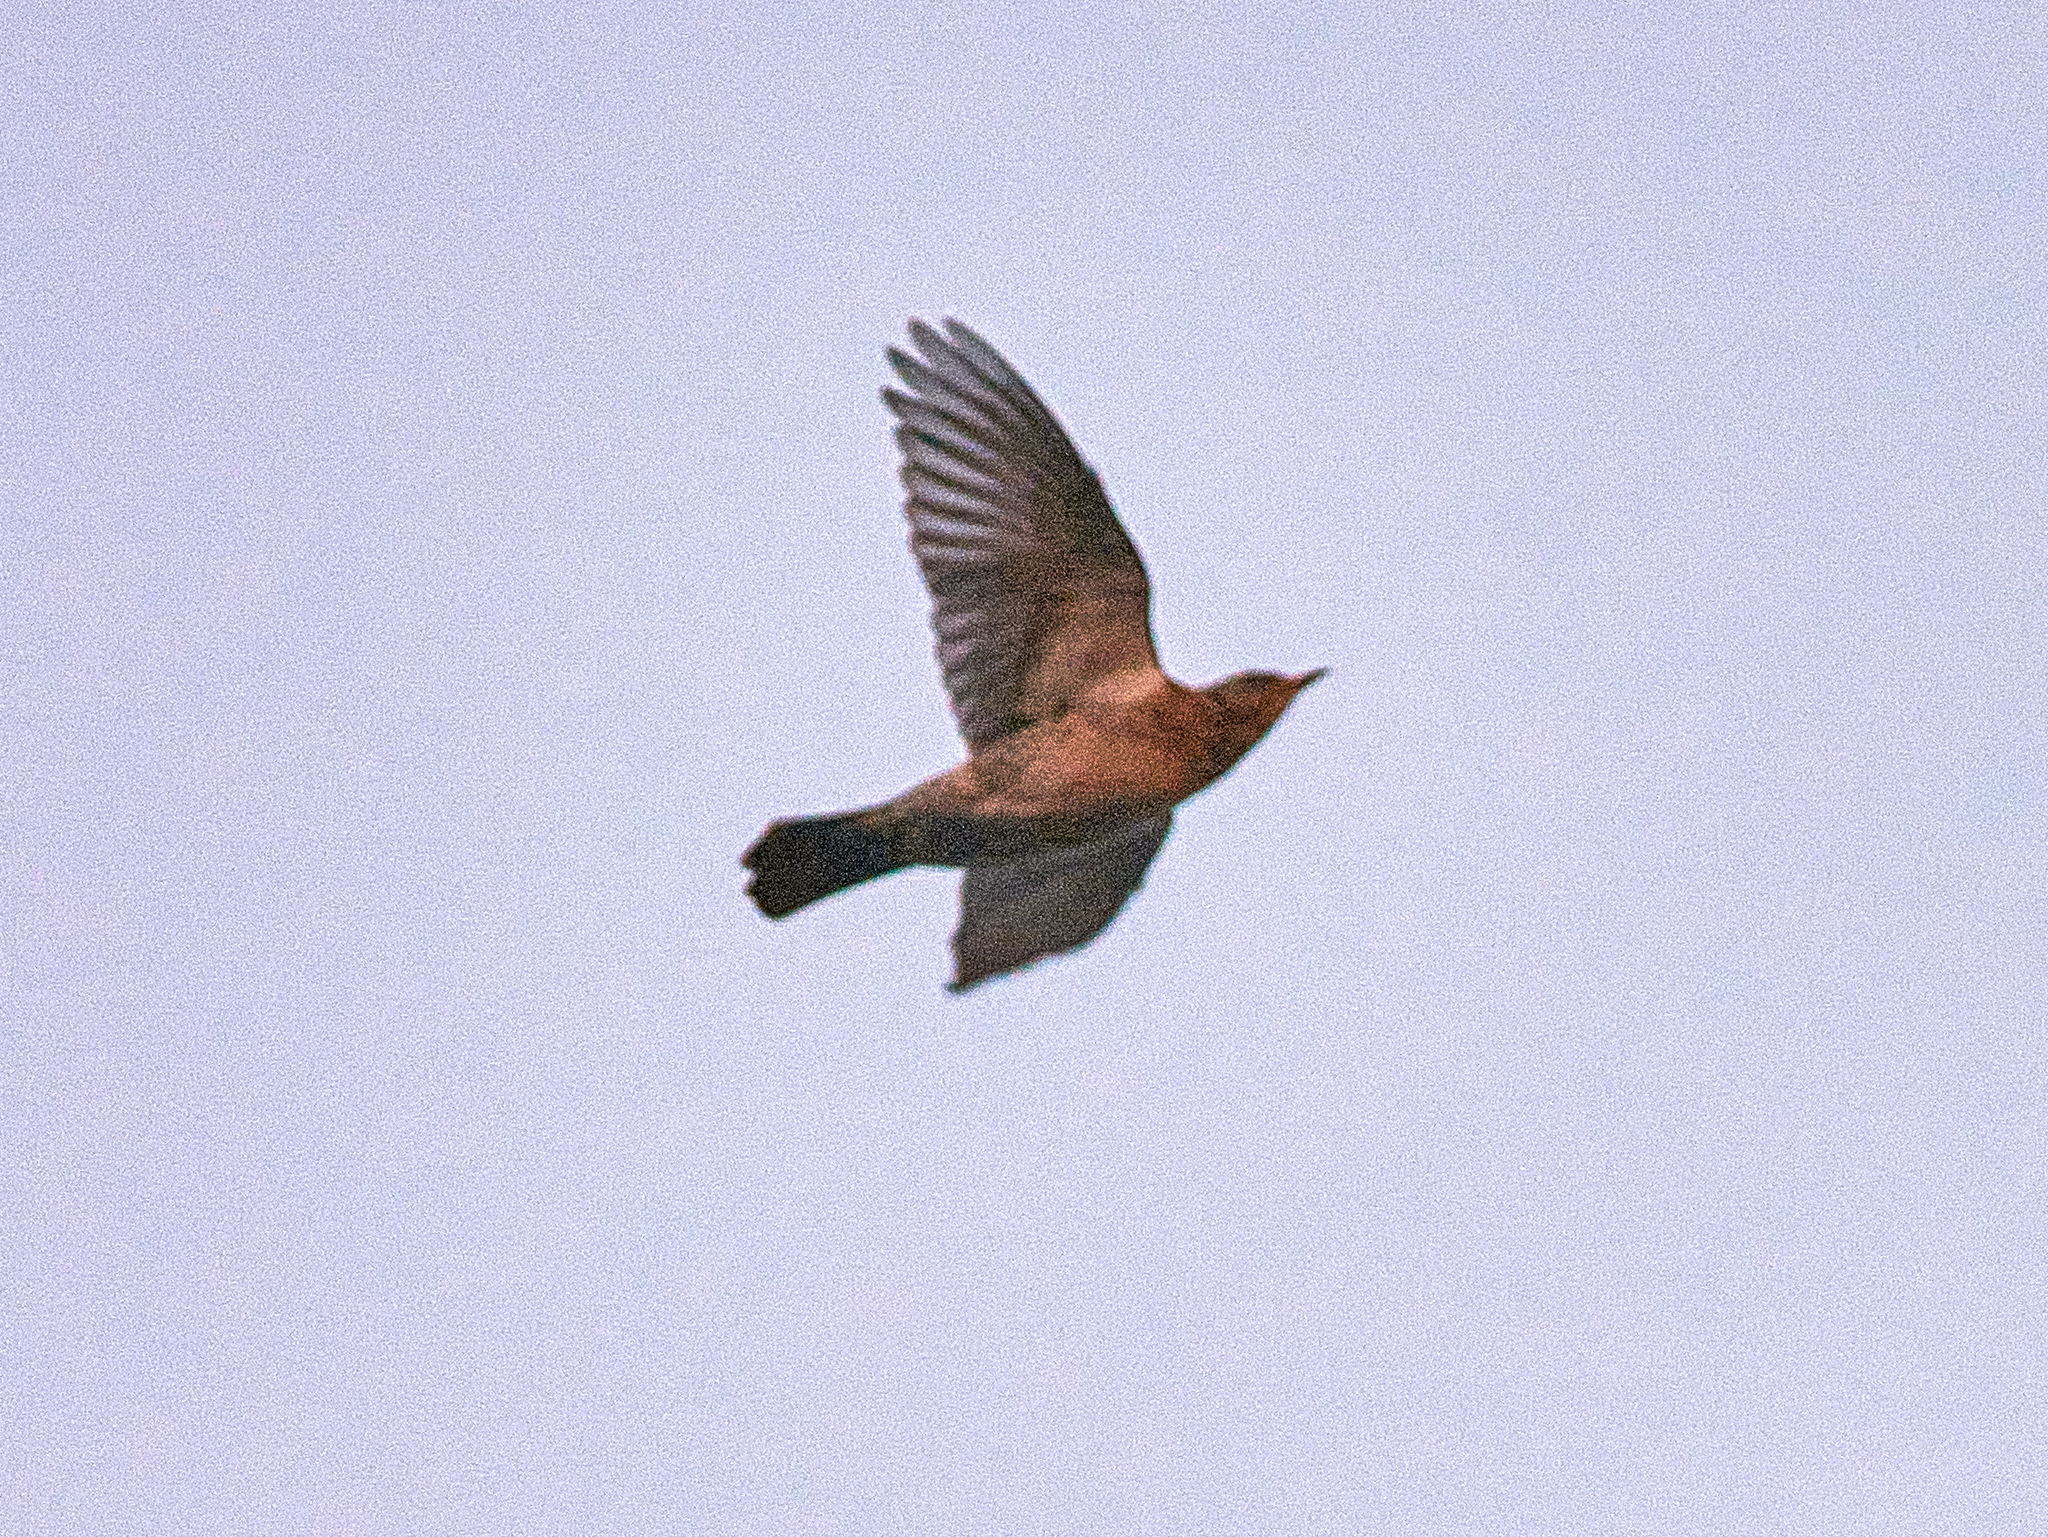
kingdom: Animalia
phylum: Chordata
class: Aves
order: Passeriformes
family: Turdidae
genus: Turdus
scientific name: Turdus pilaris
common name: Fieldfare
